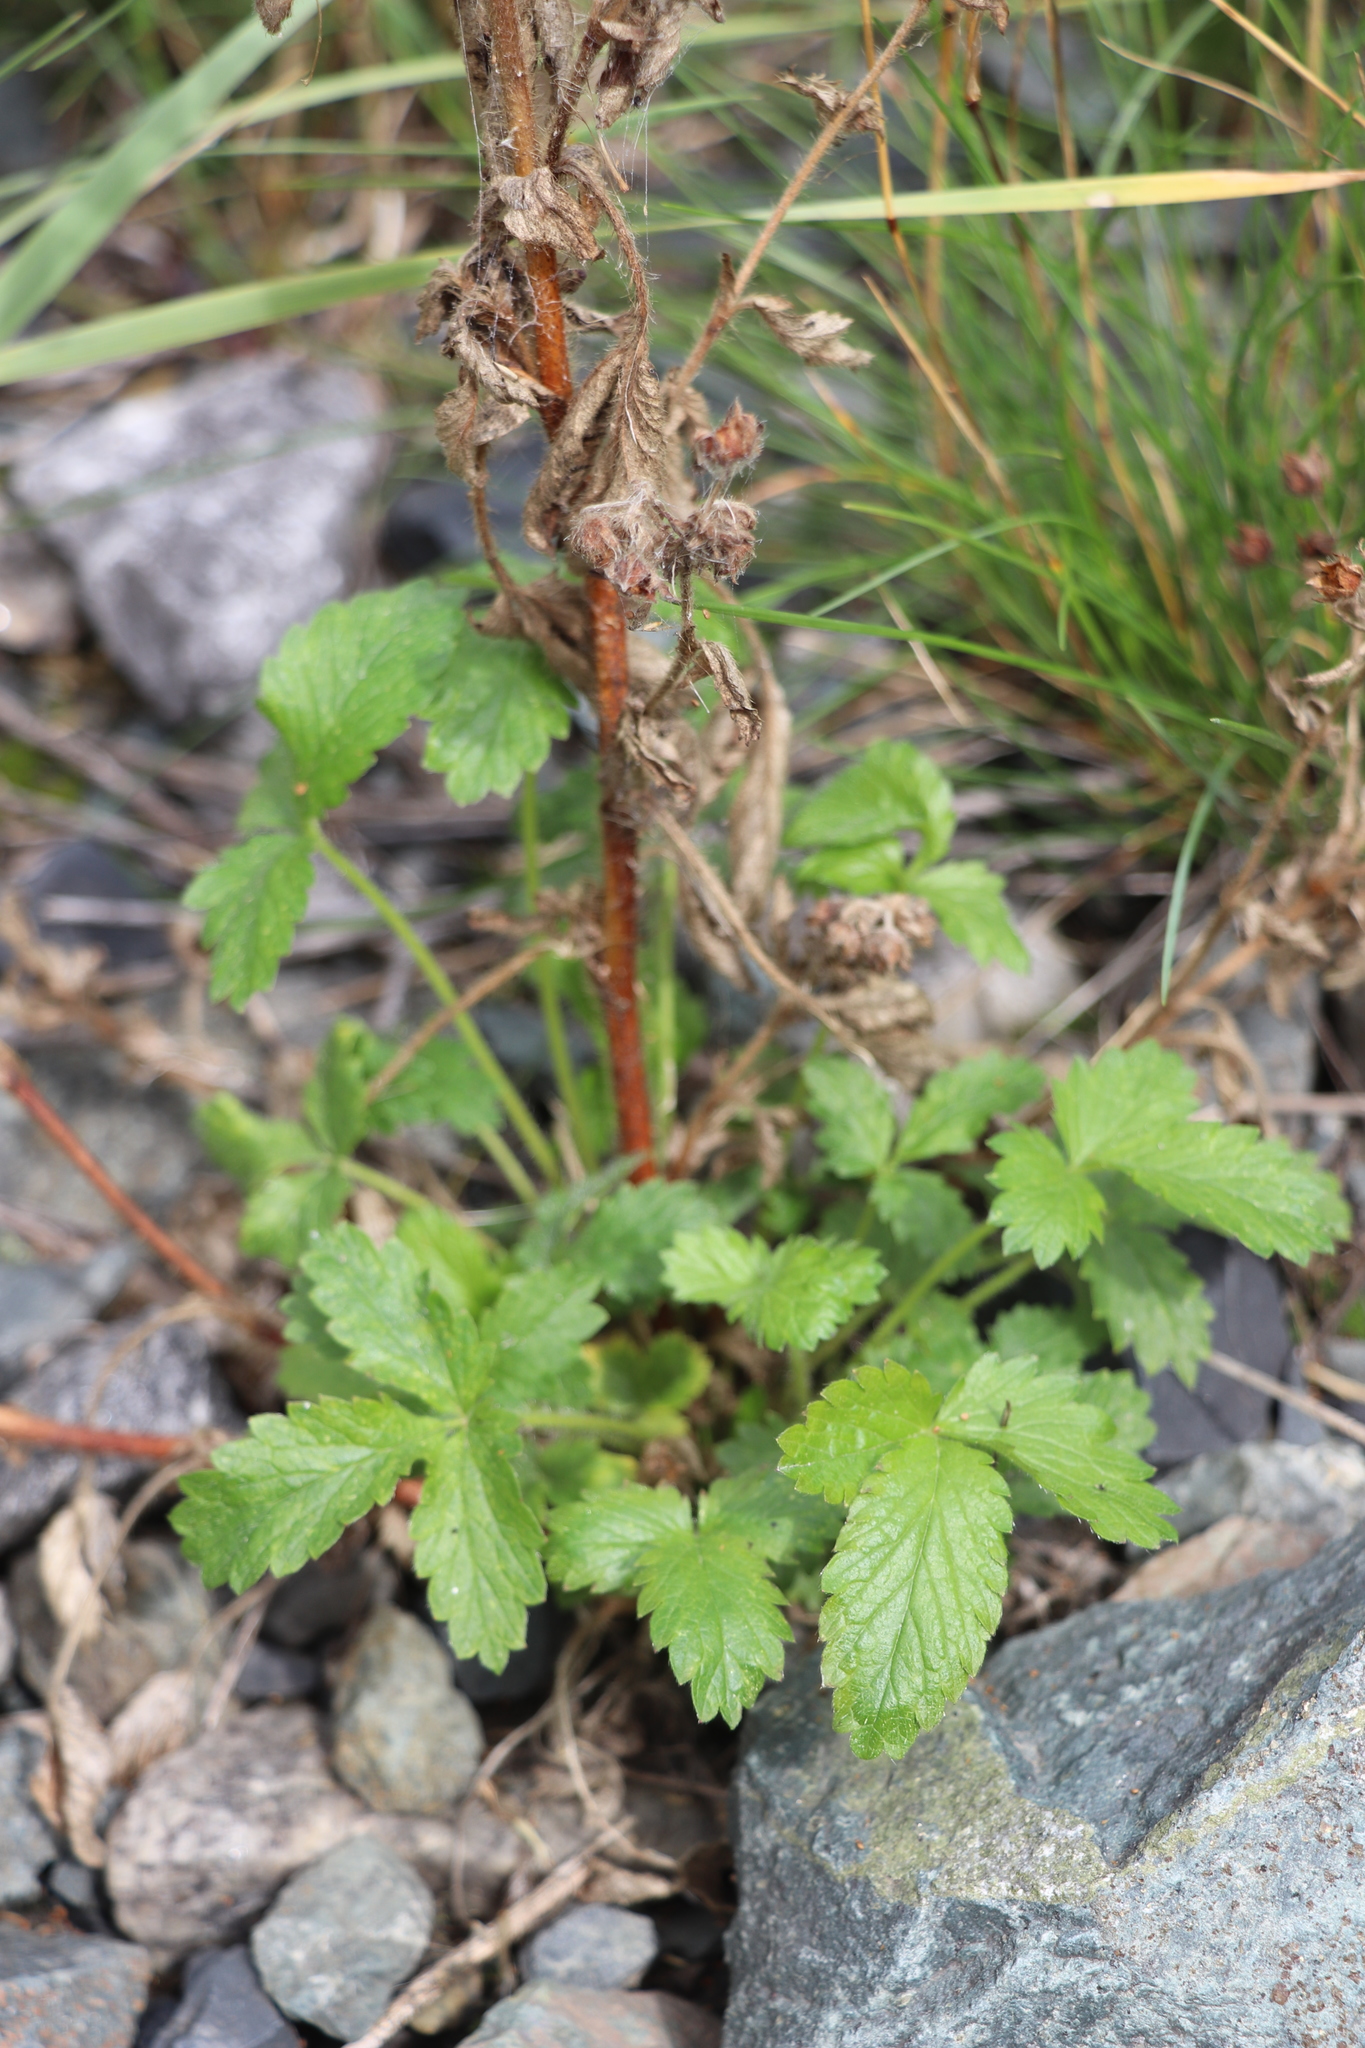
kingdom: Plantae
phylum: Tracheophyta
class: Magnoliopsida
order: Rosales
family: Rosaceae
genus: Potentilla
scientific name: Potentilla norvegica
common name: Ternate-leaved cinquefoil
